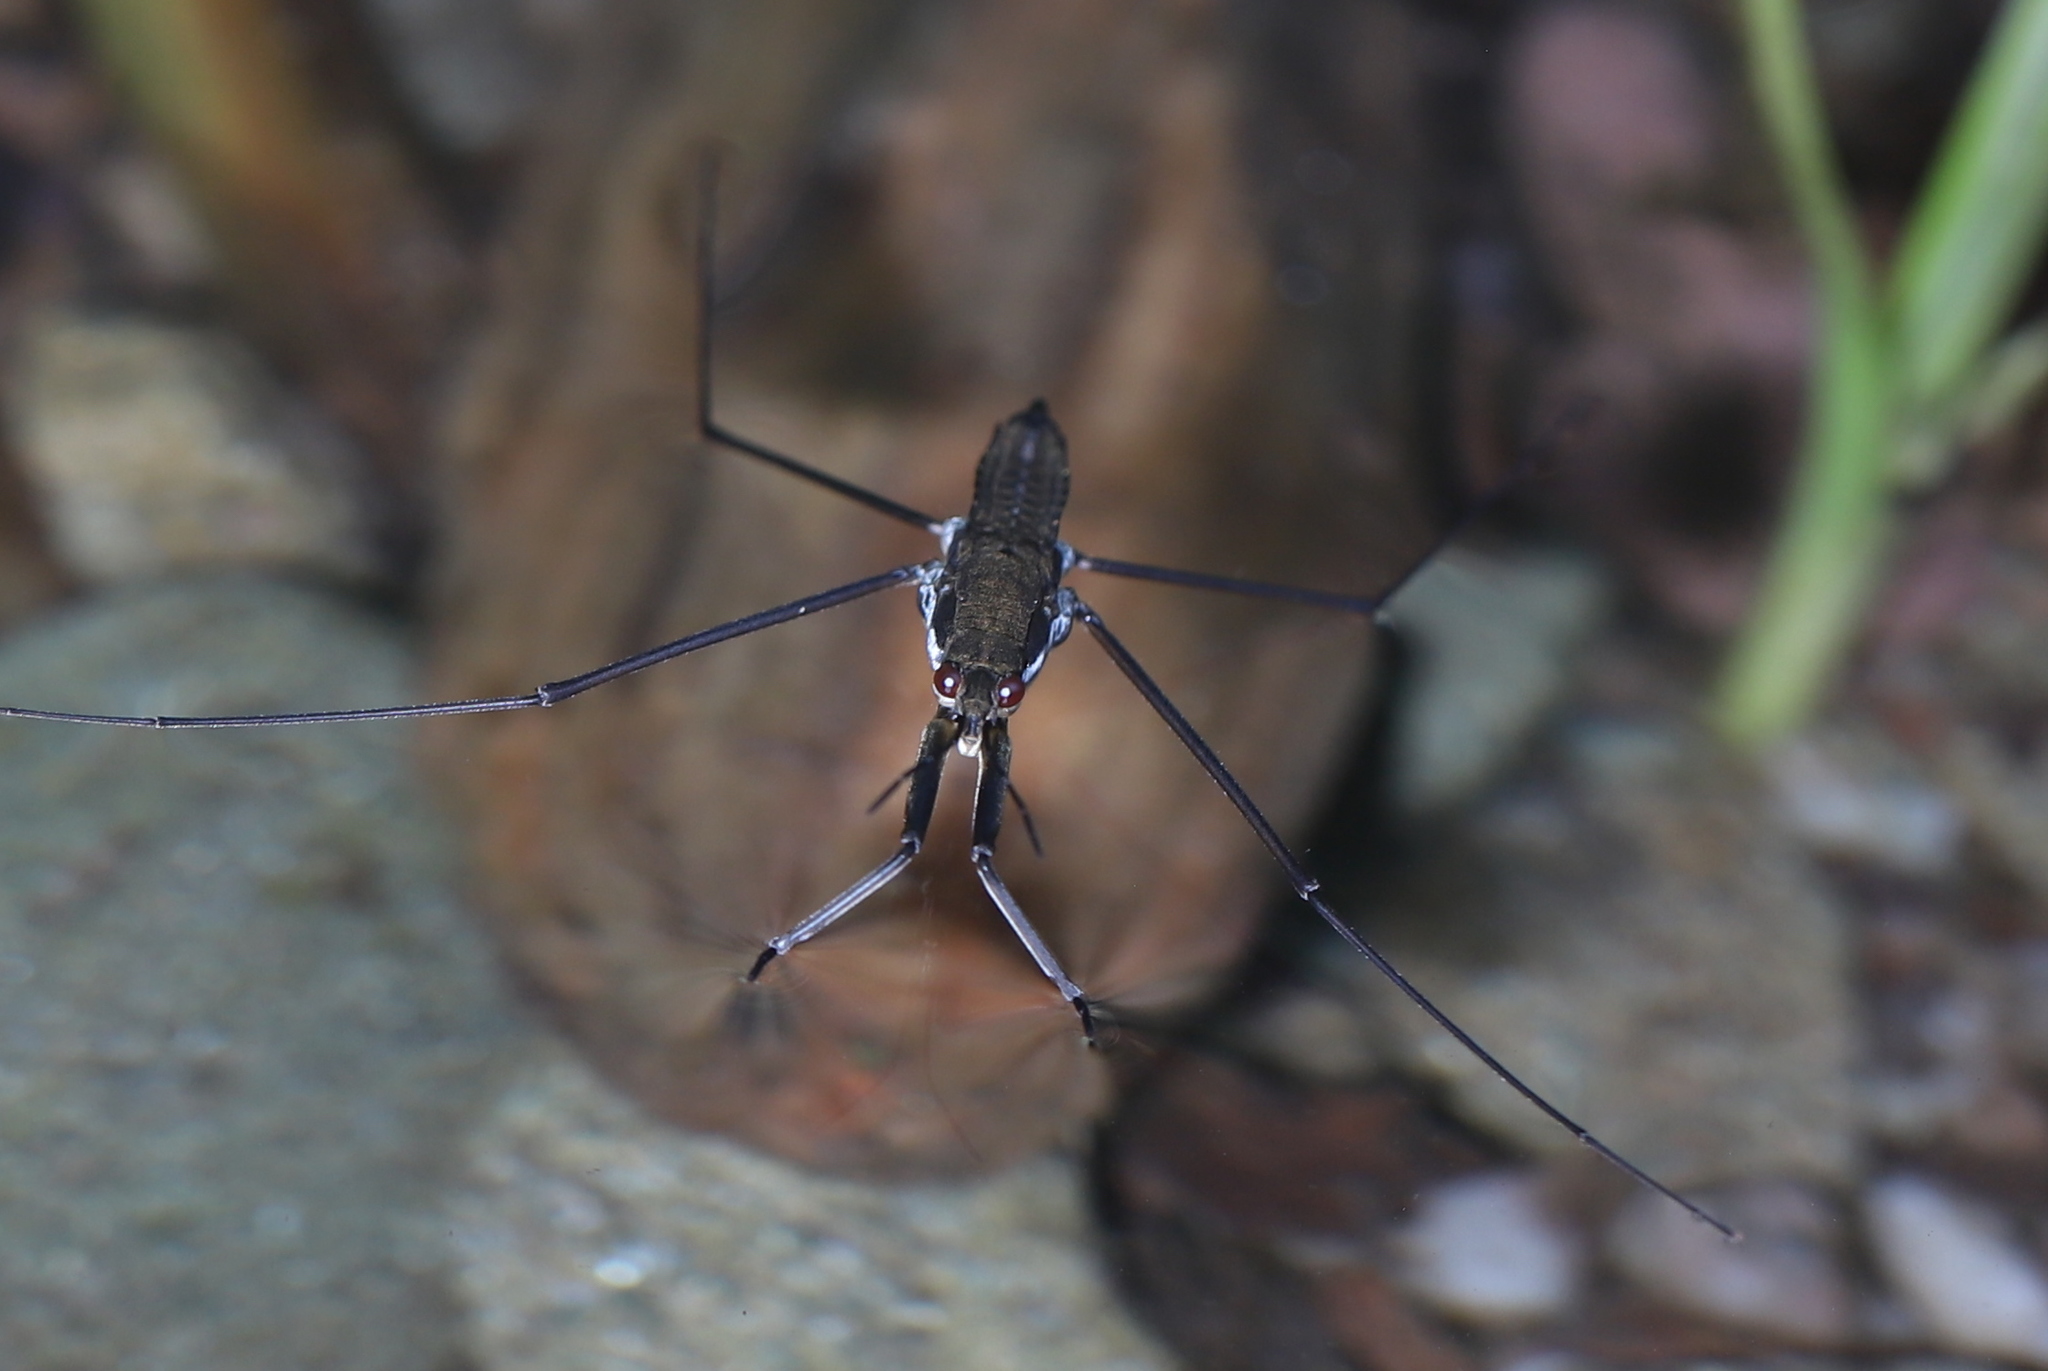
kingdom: Animalia
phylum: Arthropoda
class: Insecta
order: Hemiptera
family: Gerridae
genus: Aquarius
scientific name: Aquarius remigis
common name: Common water strider
